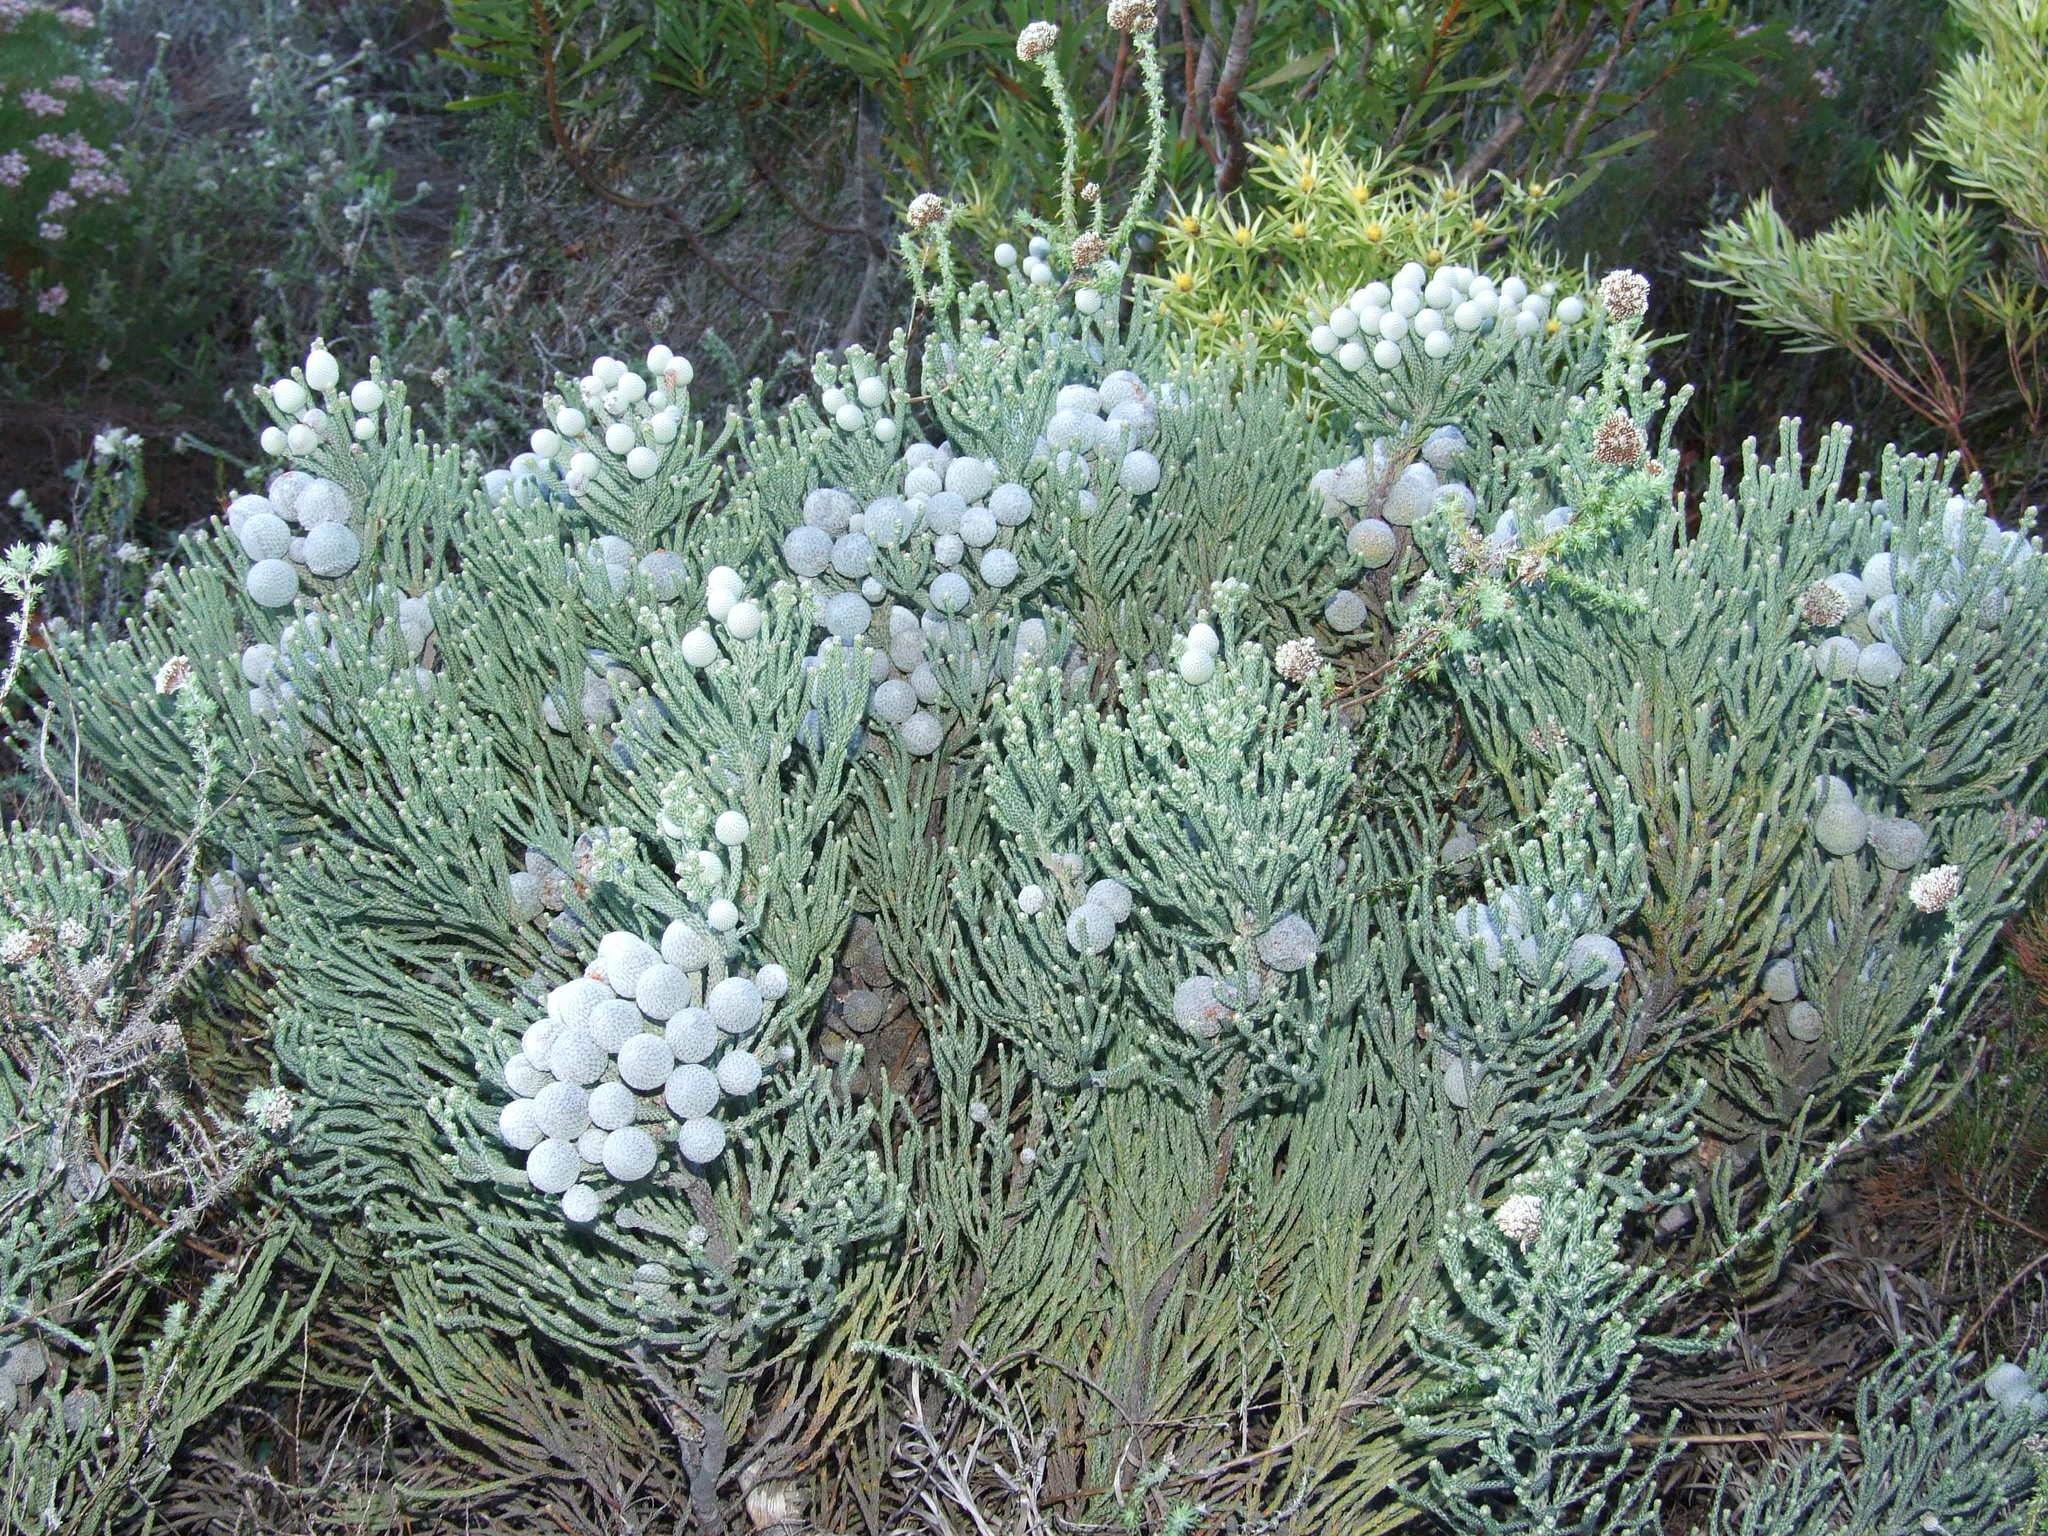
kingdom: Plantae
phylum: Tracheophyta
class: Magnoliopsida
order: Bruniales
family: Bruniaceae
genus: Brunia
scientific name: Brunia laevis
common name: Silver brunia
